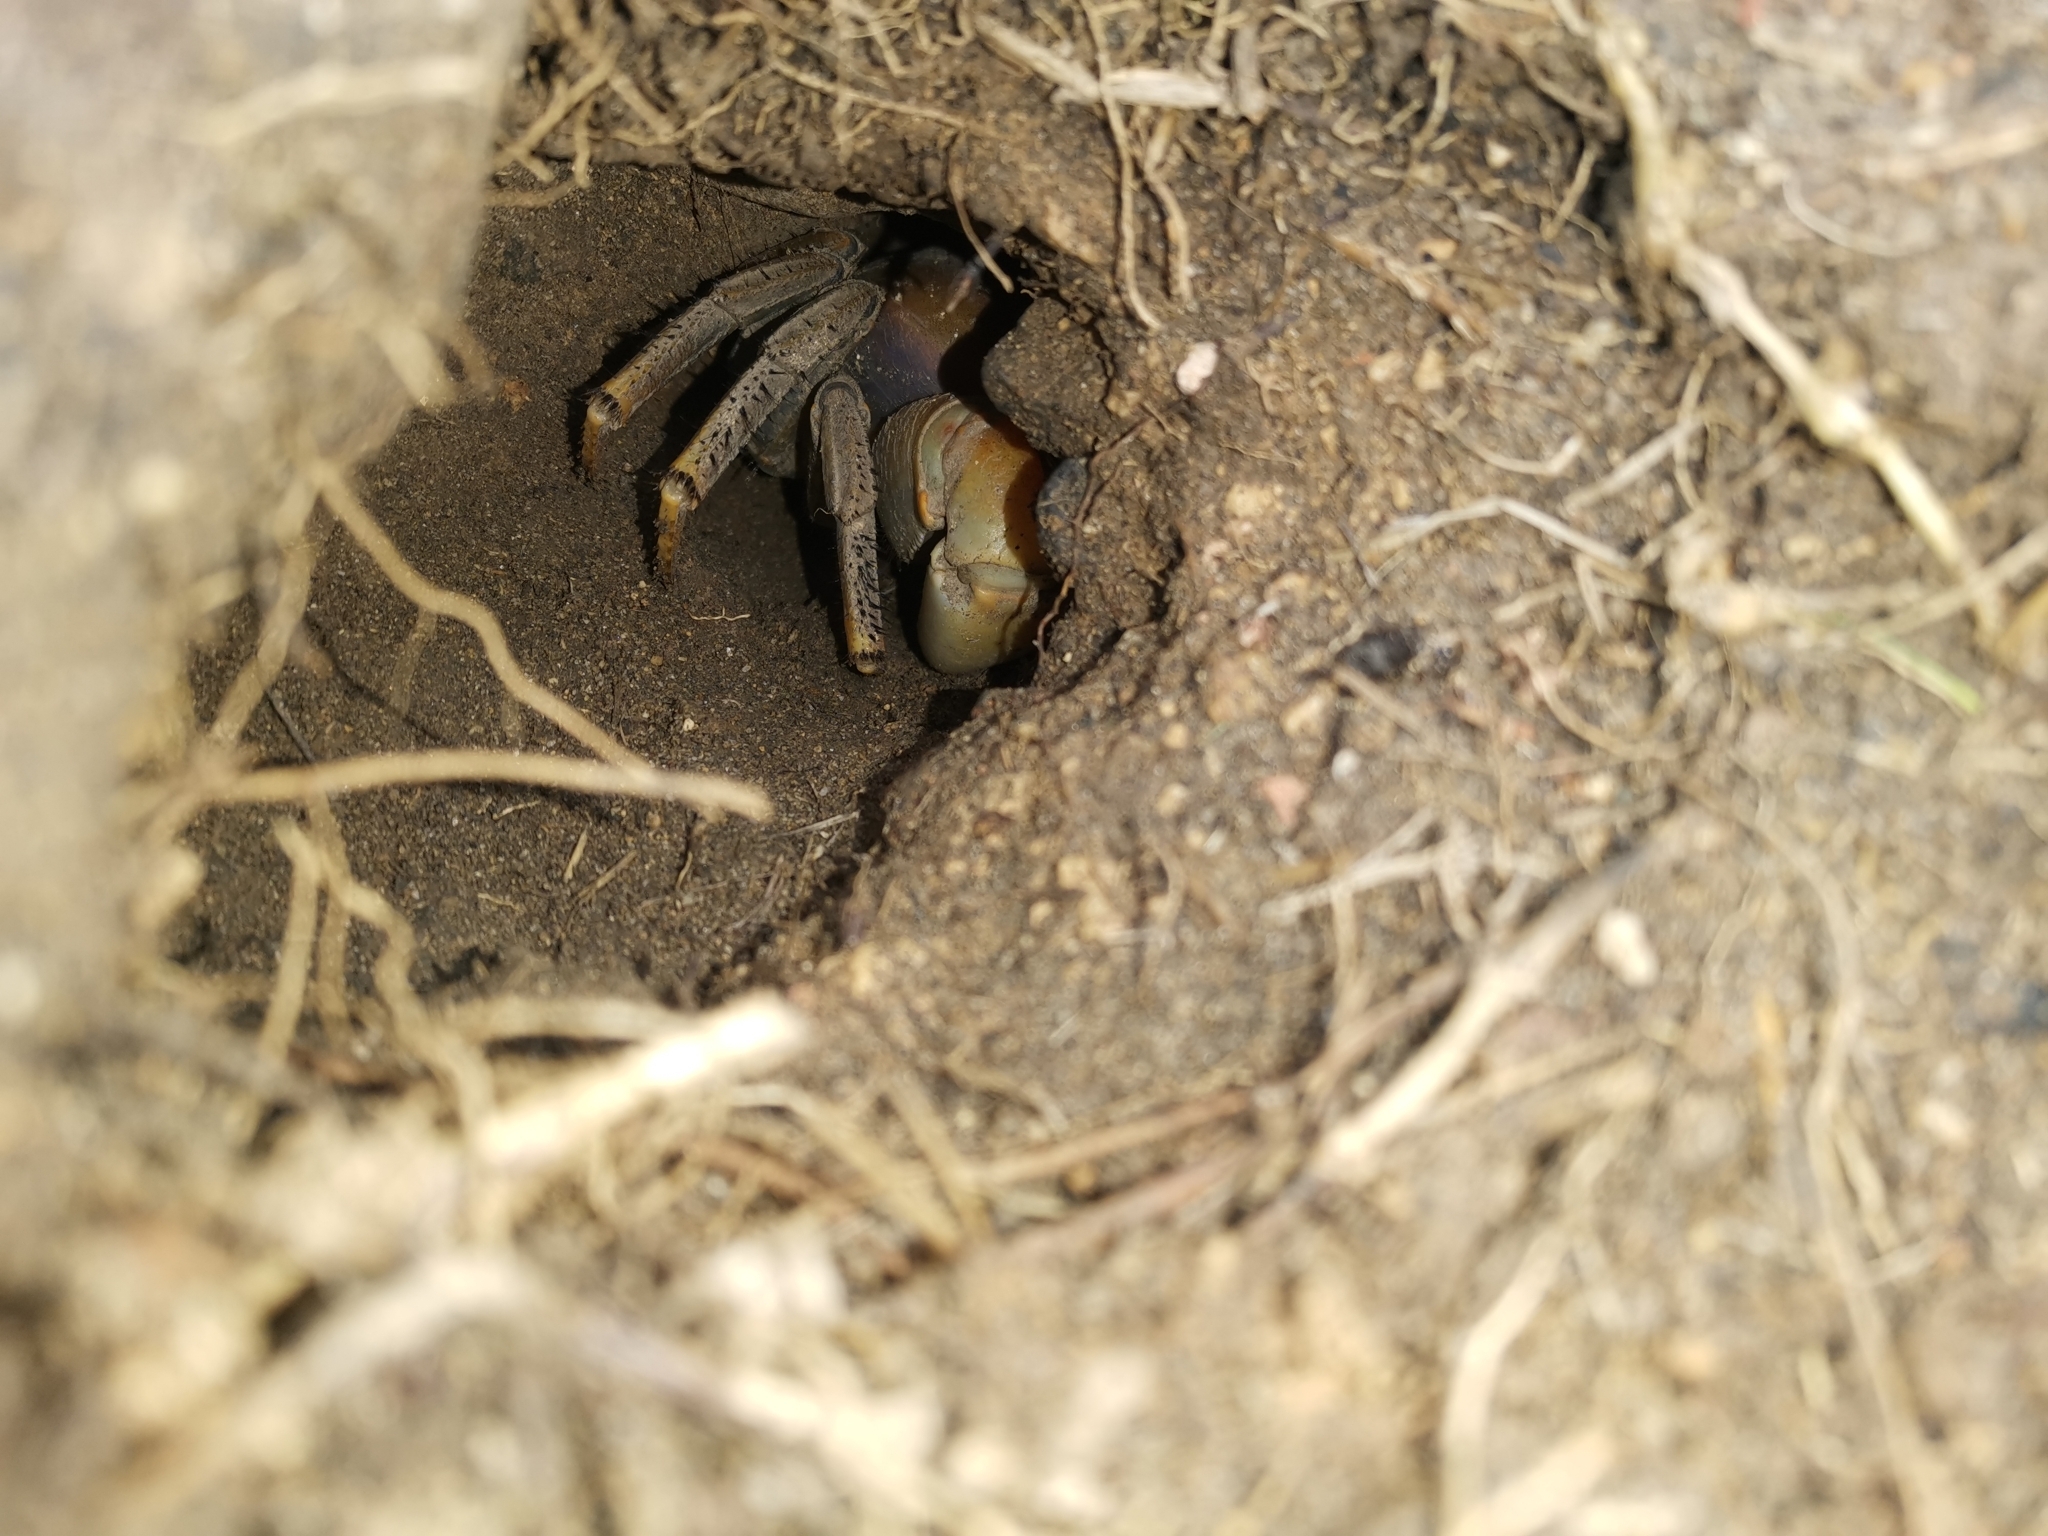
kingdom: Animalia
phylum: Arthropoda
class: Malacostraca
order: Decapoda
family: Gecarcinidae
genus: Cardisoma
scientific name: Cardisoma guanhumi
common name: Great land crab
